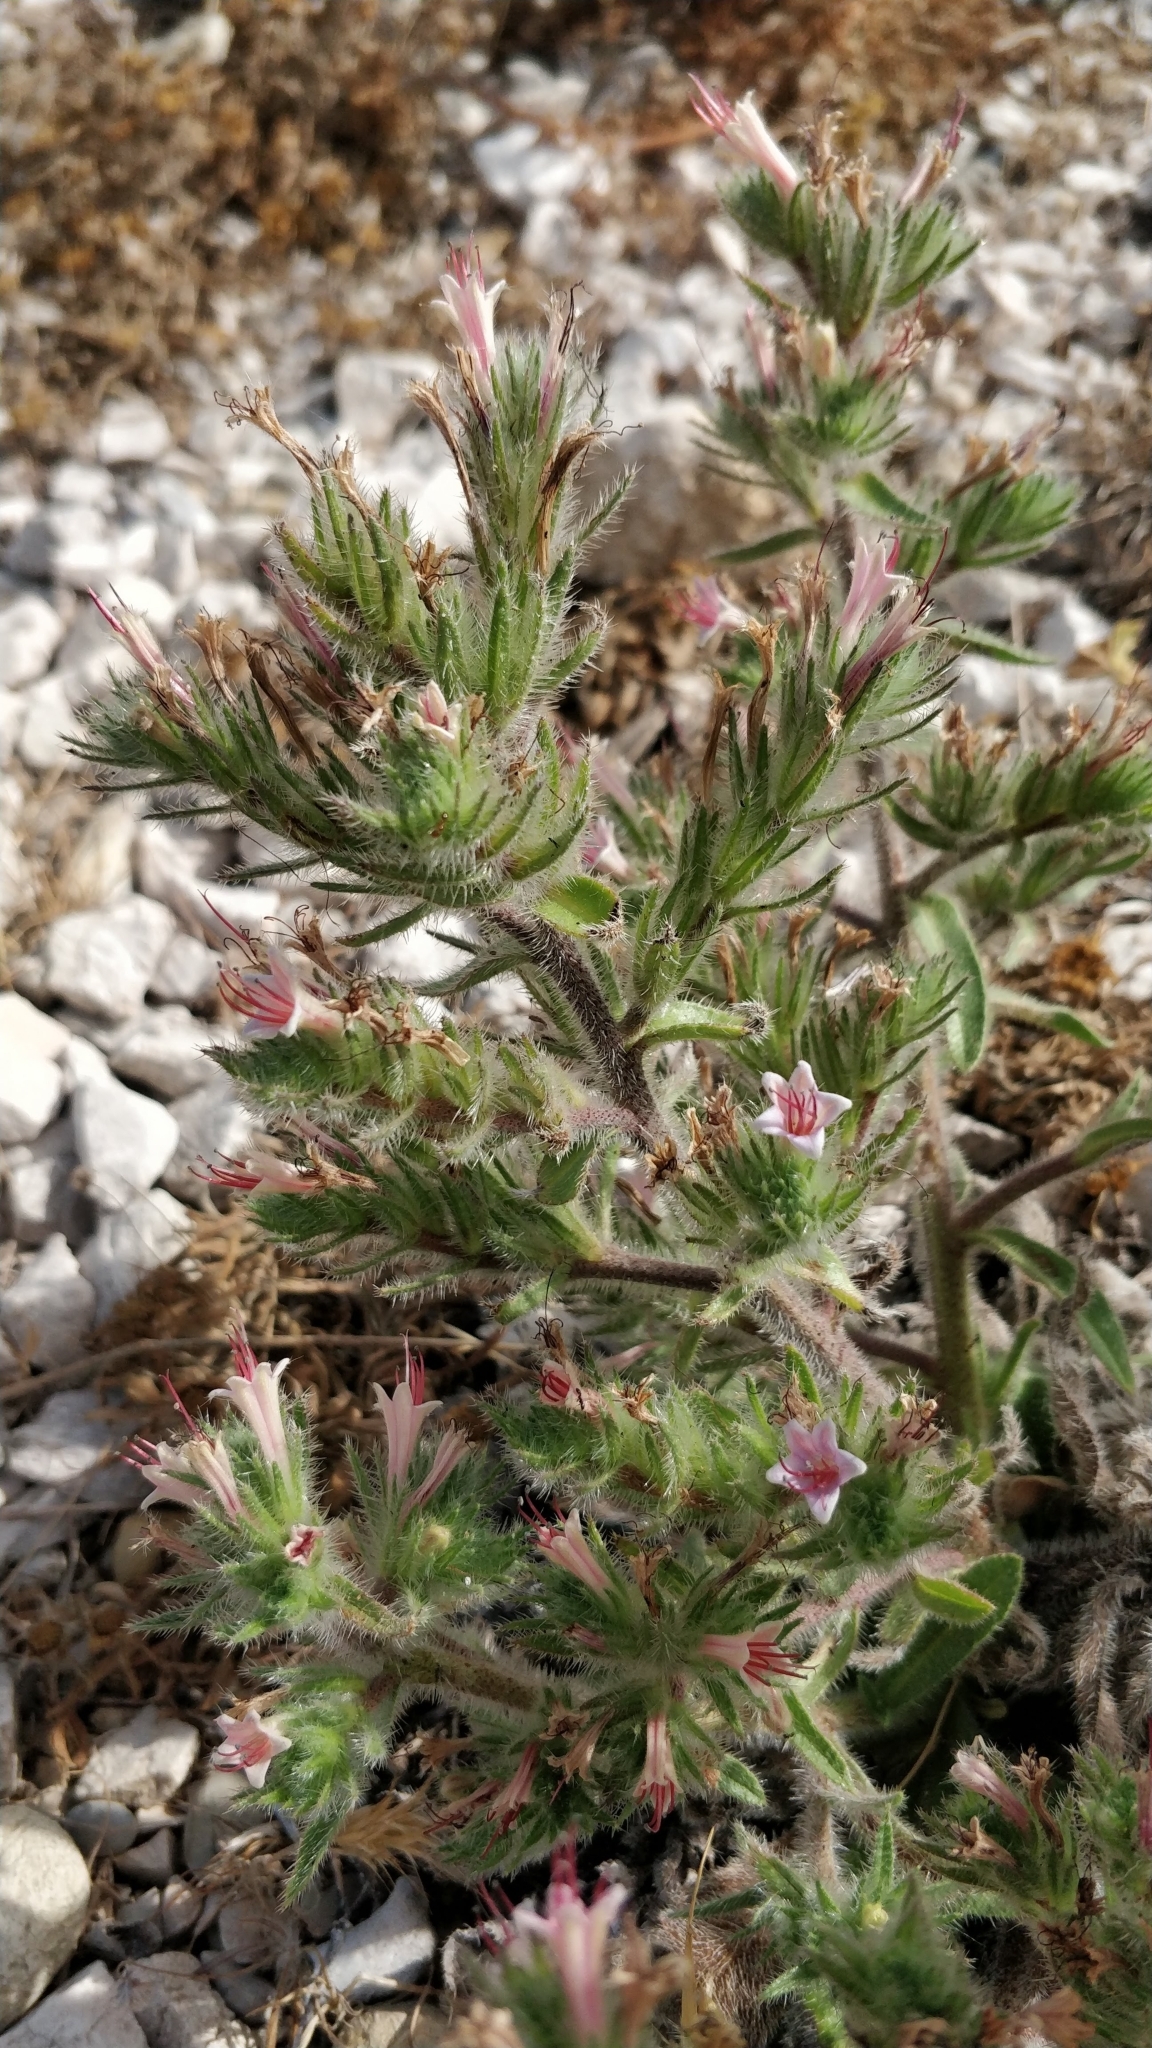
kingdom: Plantae
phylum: Tracheophyta
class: Magnoliopsida
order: Boraginales
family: Boraginaceae
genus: Echium
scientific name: Echium asperrimum
